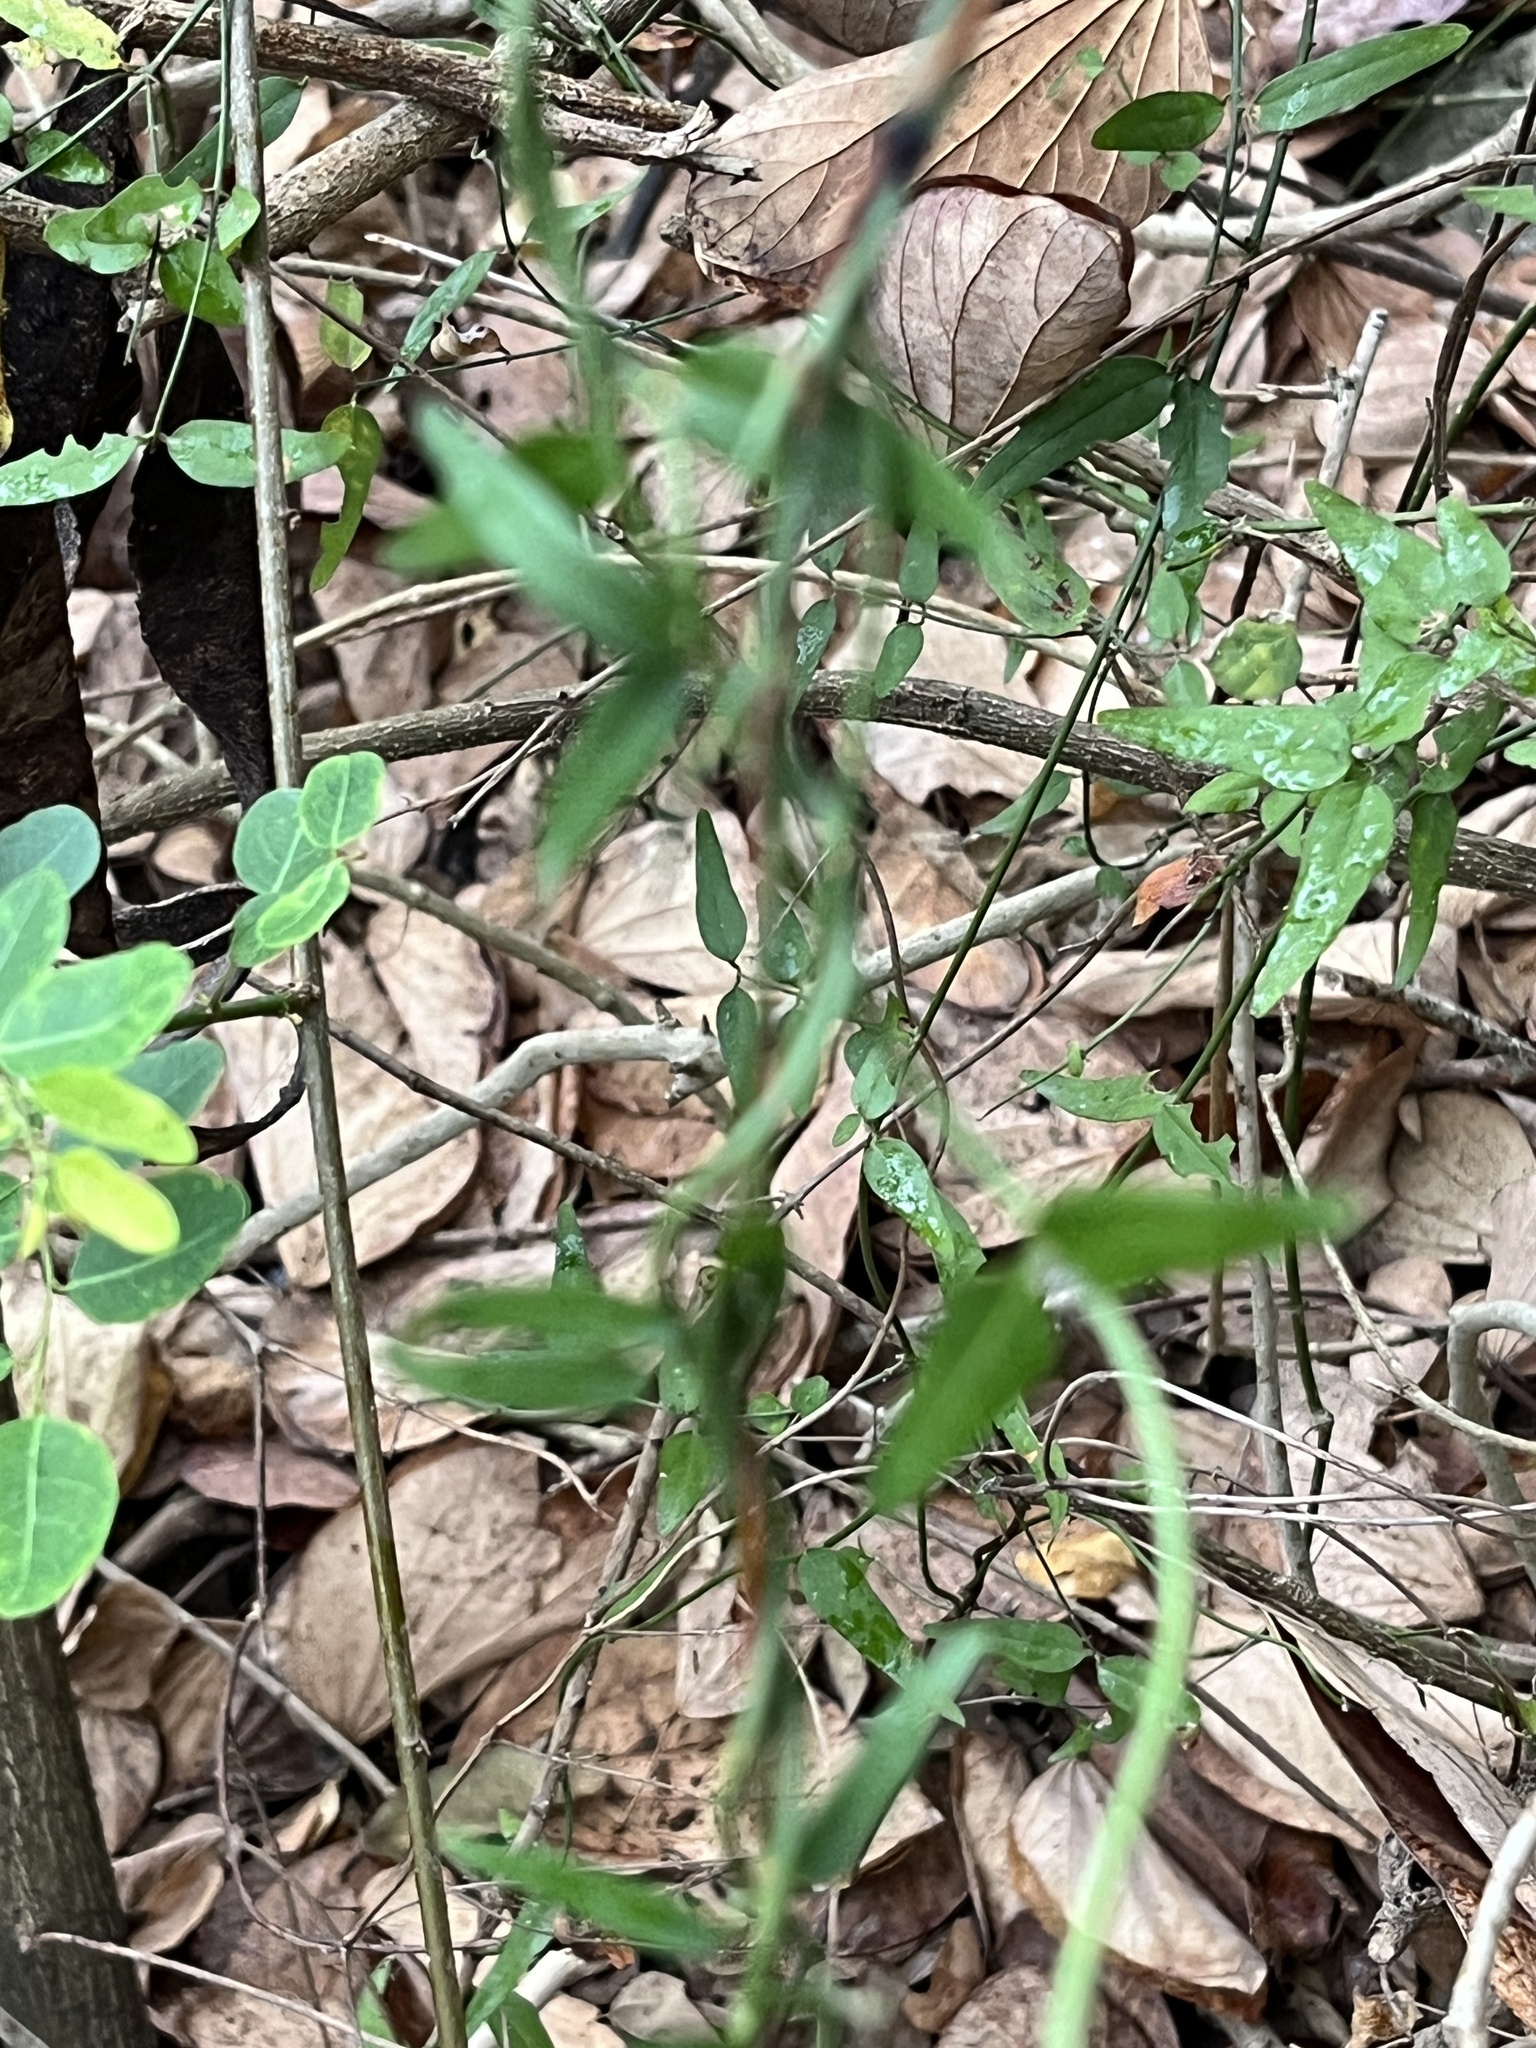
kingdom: Plantae
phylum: Tracheophyta
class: Magnoliopsida
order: Lamiales
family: Oleaceae
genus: Jasminum
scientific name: Jasminum nervosum
